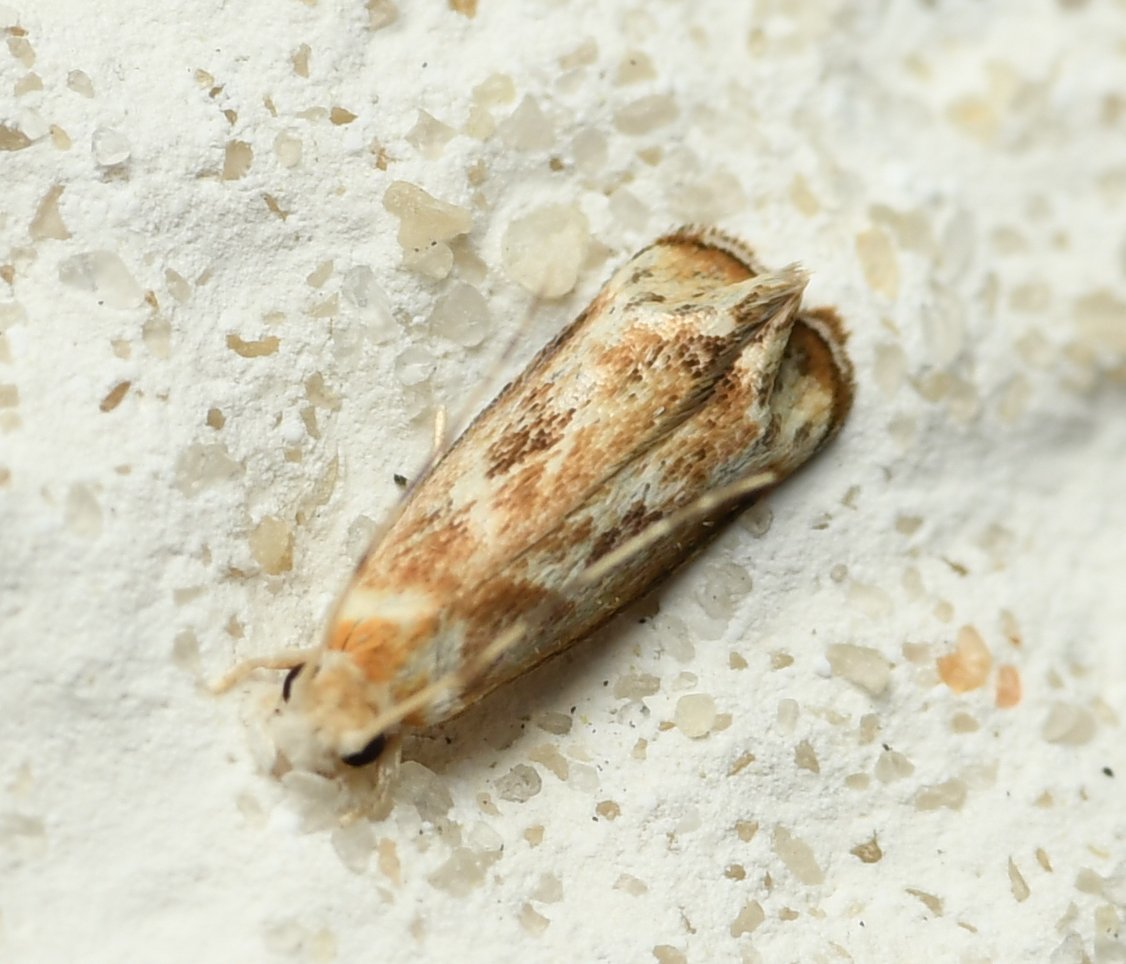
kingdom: Animalia
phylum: Arthropoda
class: Insecta
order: Lepidoptera
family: Dryadaulidae
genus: Dryadaula
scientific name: Dryadaula terpsichorella
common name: Dancing moth
